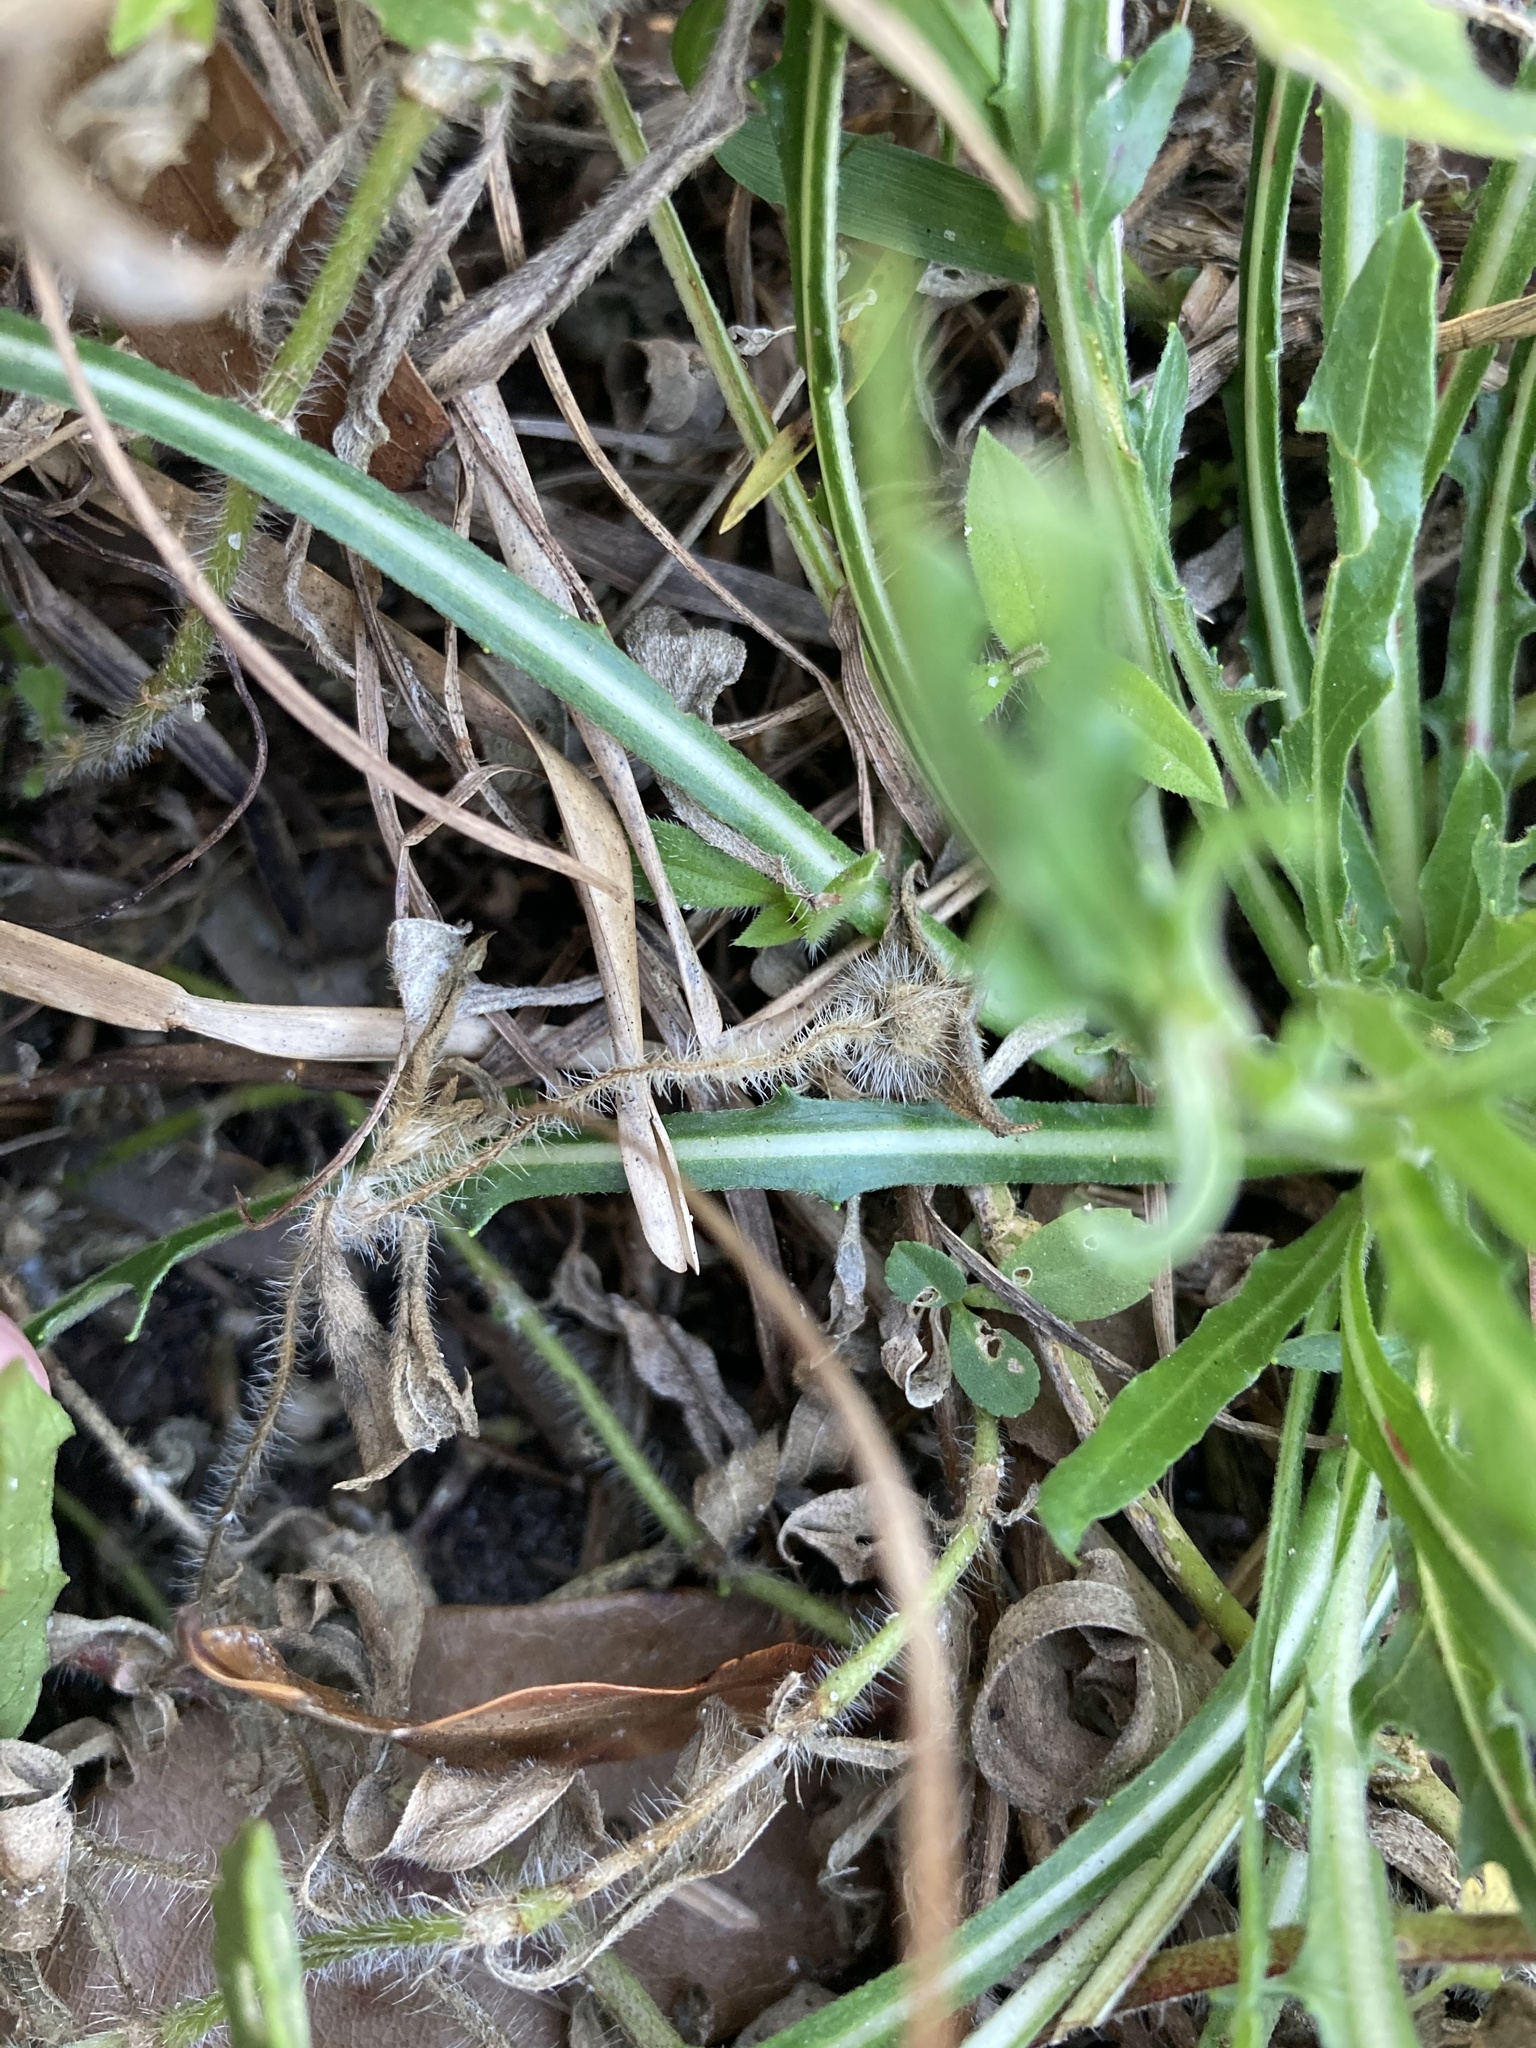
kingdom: Plantae
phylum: Tracheophyta
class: Magnoliopsida
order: Asterales
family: Asteraceae
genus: Lactuca
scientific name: Lactuca graminifolia
